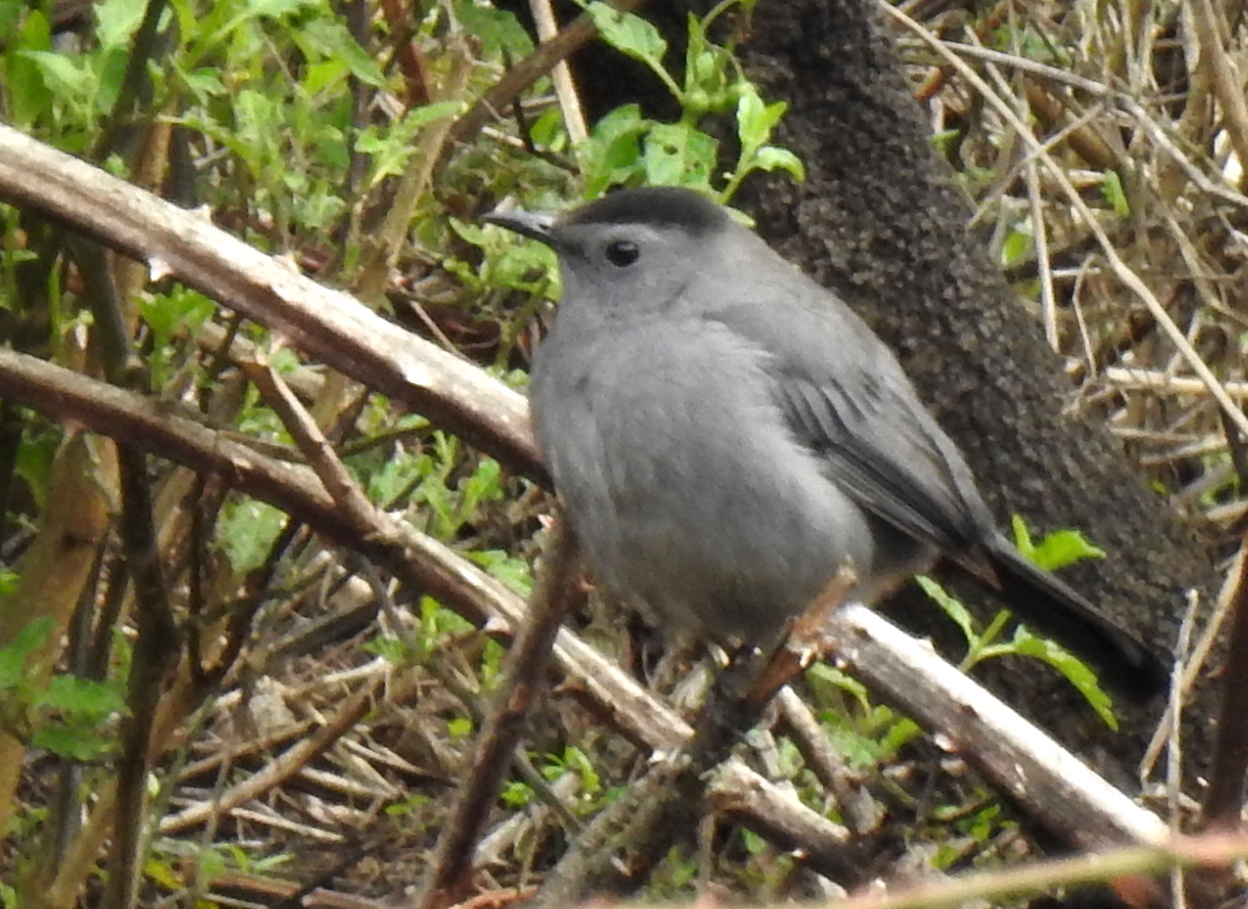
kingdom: Animalia
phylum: Chordata
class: Aves
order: Passeriformes
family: Mimidae
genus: Dumetella
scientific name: Dumetella carolinensis
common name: Gray catbird
